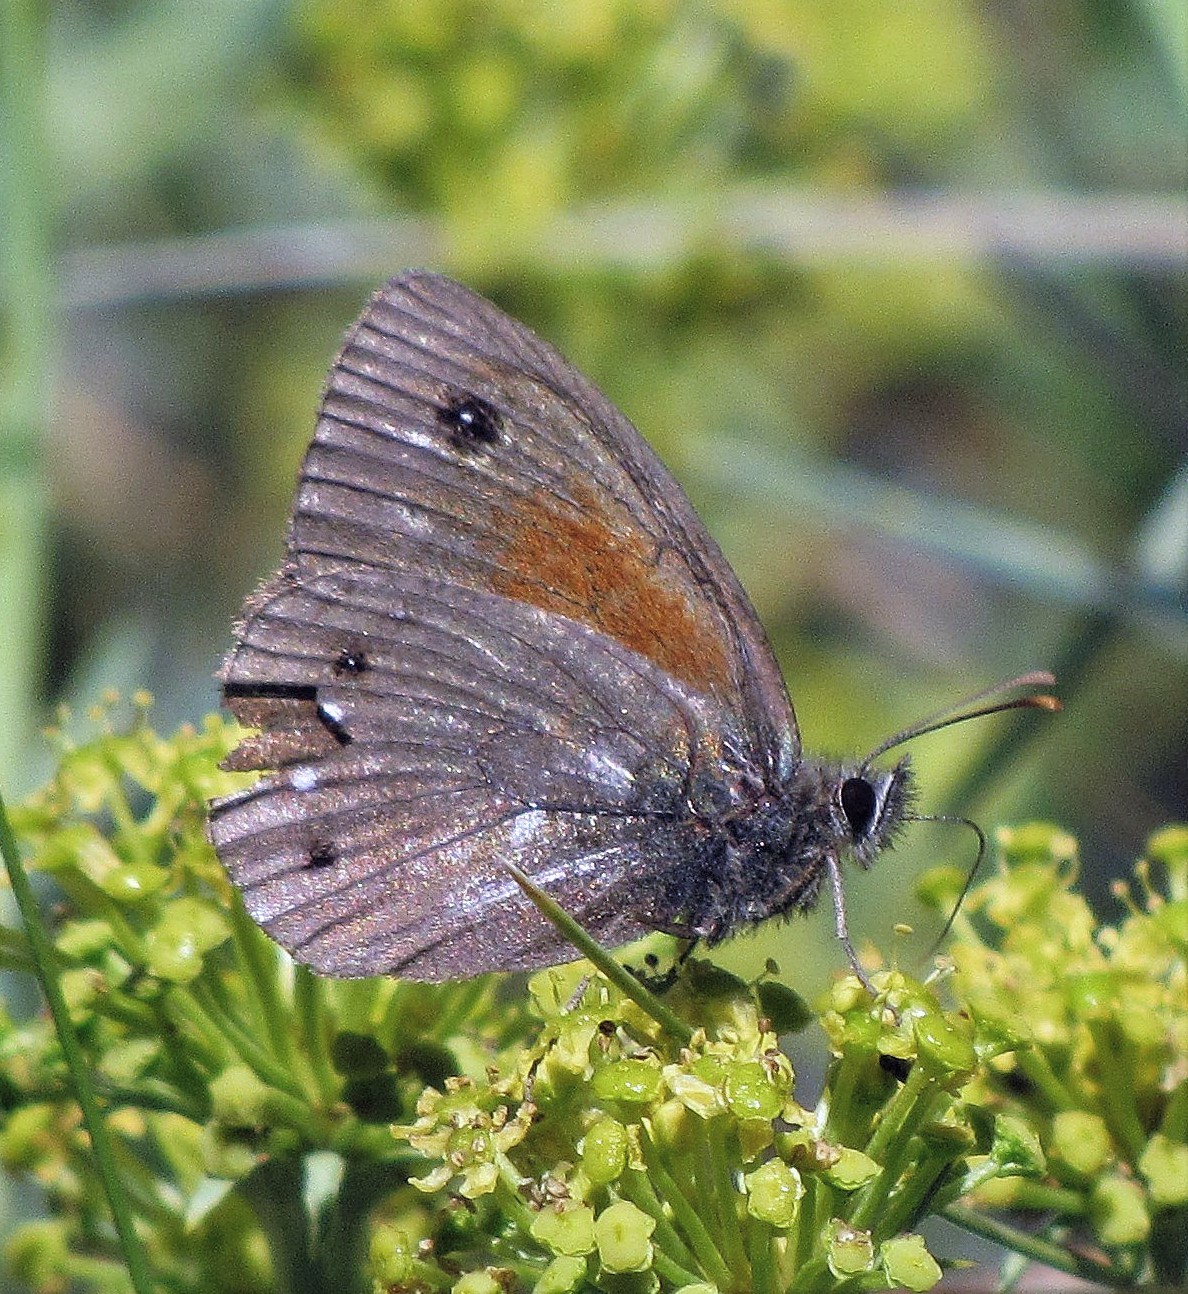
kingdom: Animalia
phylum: Arthropoda
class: Insecta
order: Lepidoptera
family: Nymphalidae
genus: Cosmosatyrus
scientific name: Cosmosatyrus leptoneuroides
